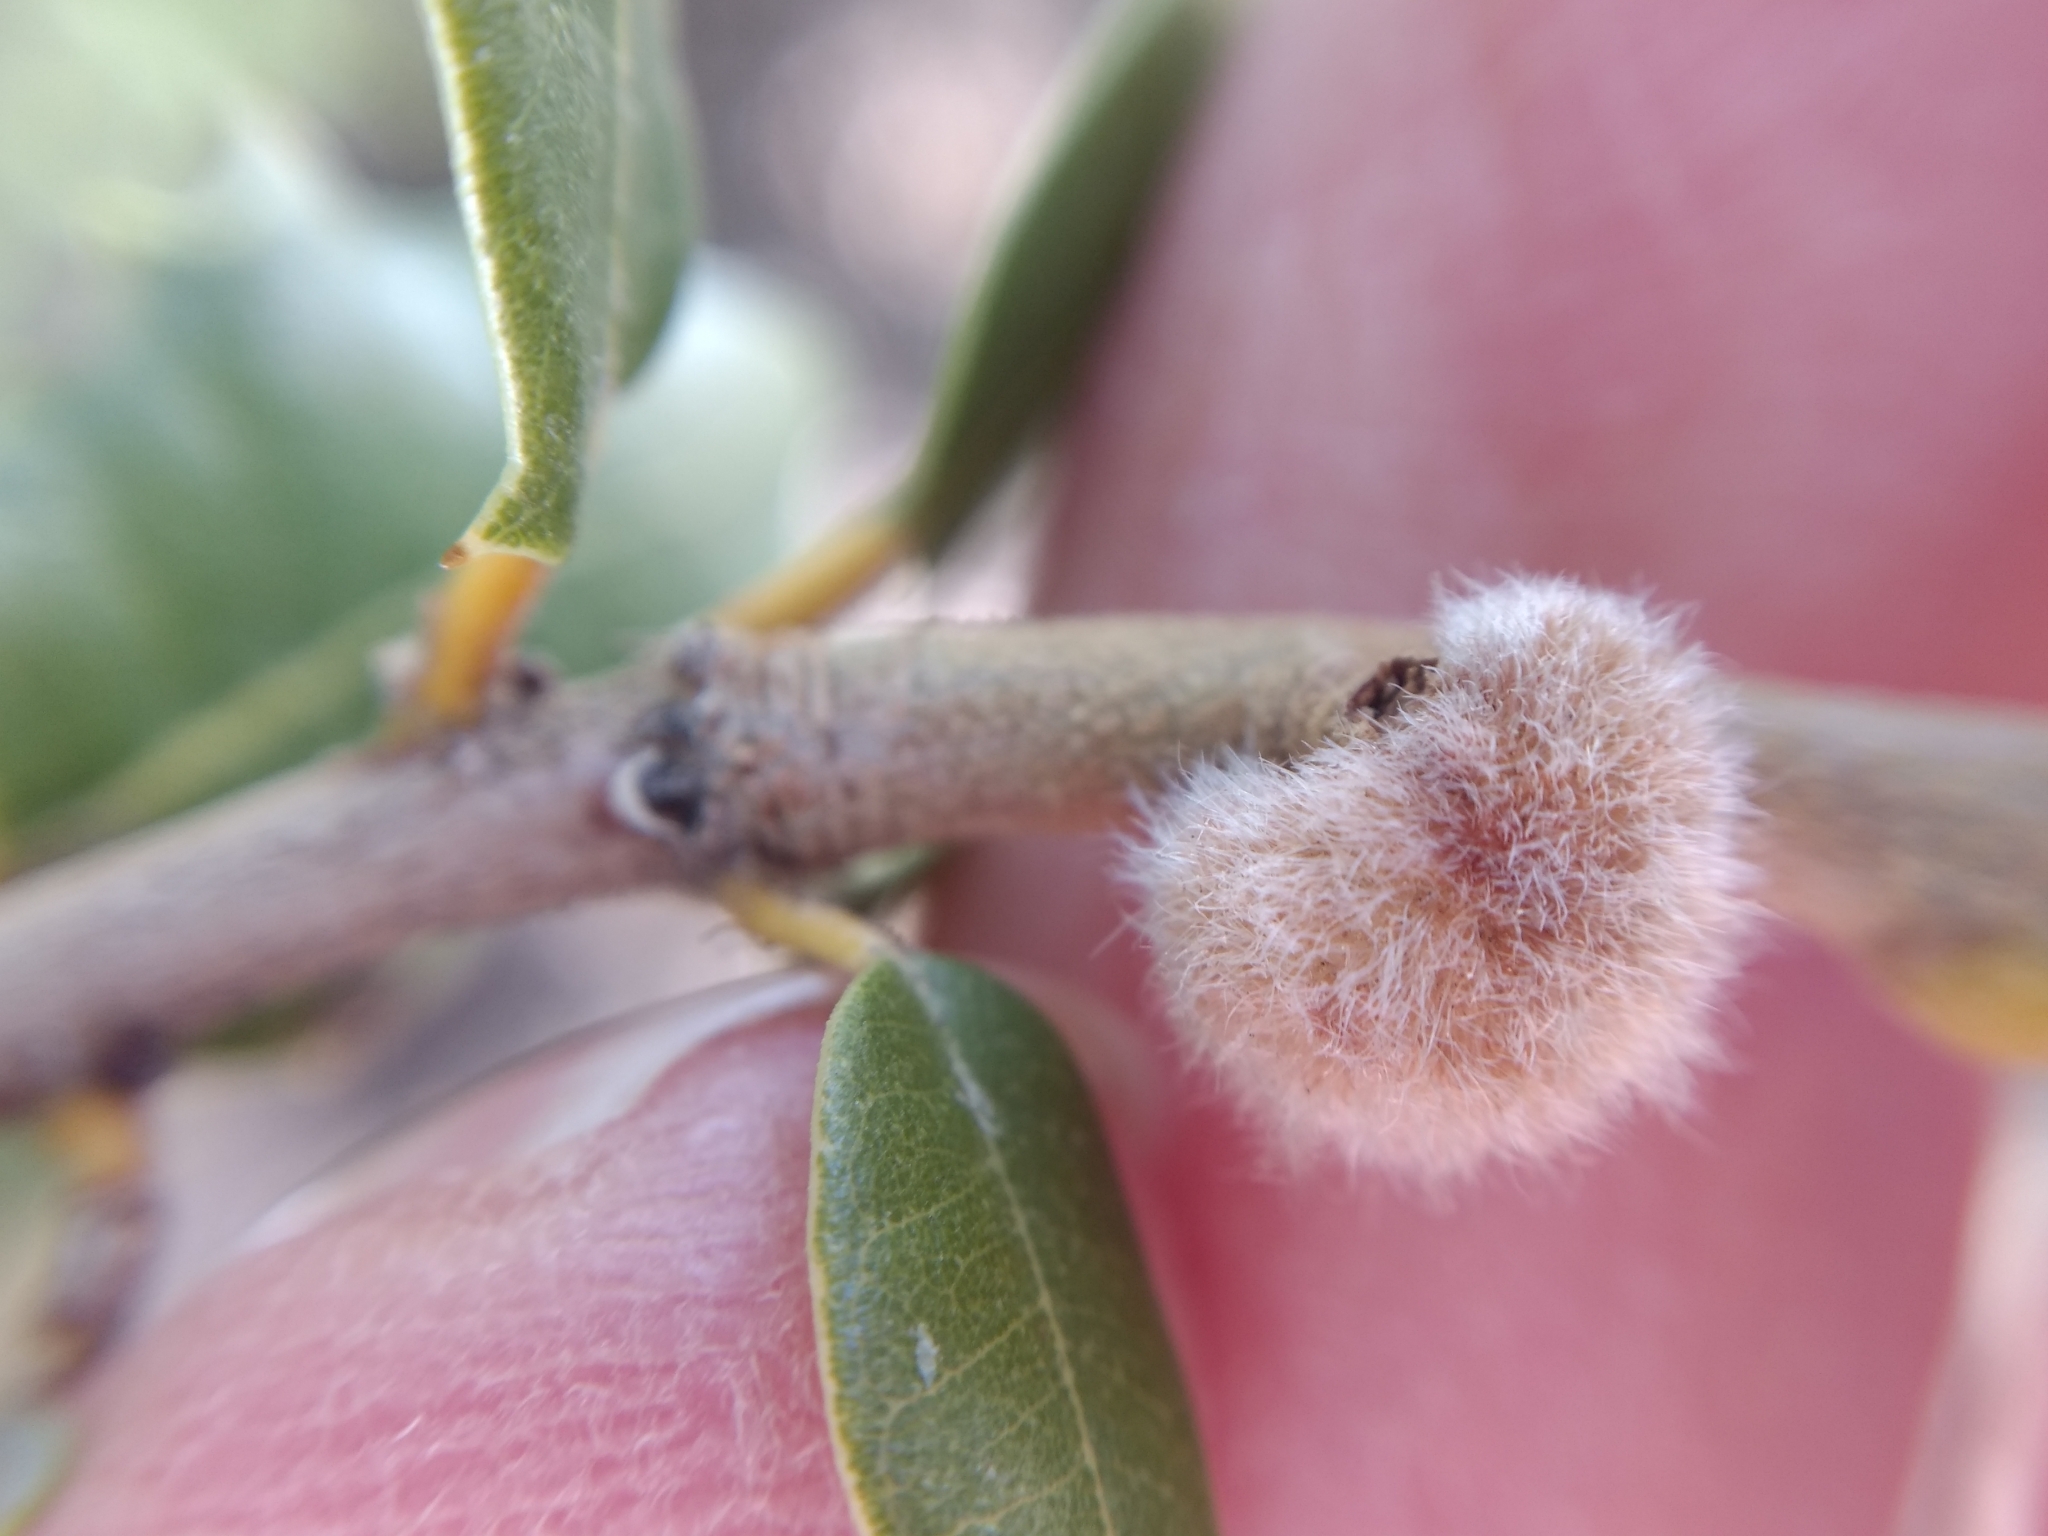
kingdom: Animalia
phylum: Arthropoda
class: Insecta
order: Hymenoptera
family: Cynipidae
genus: Disholandricus
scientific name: Disholandricus
